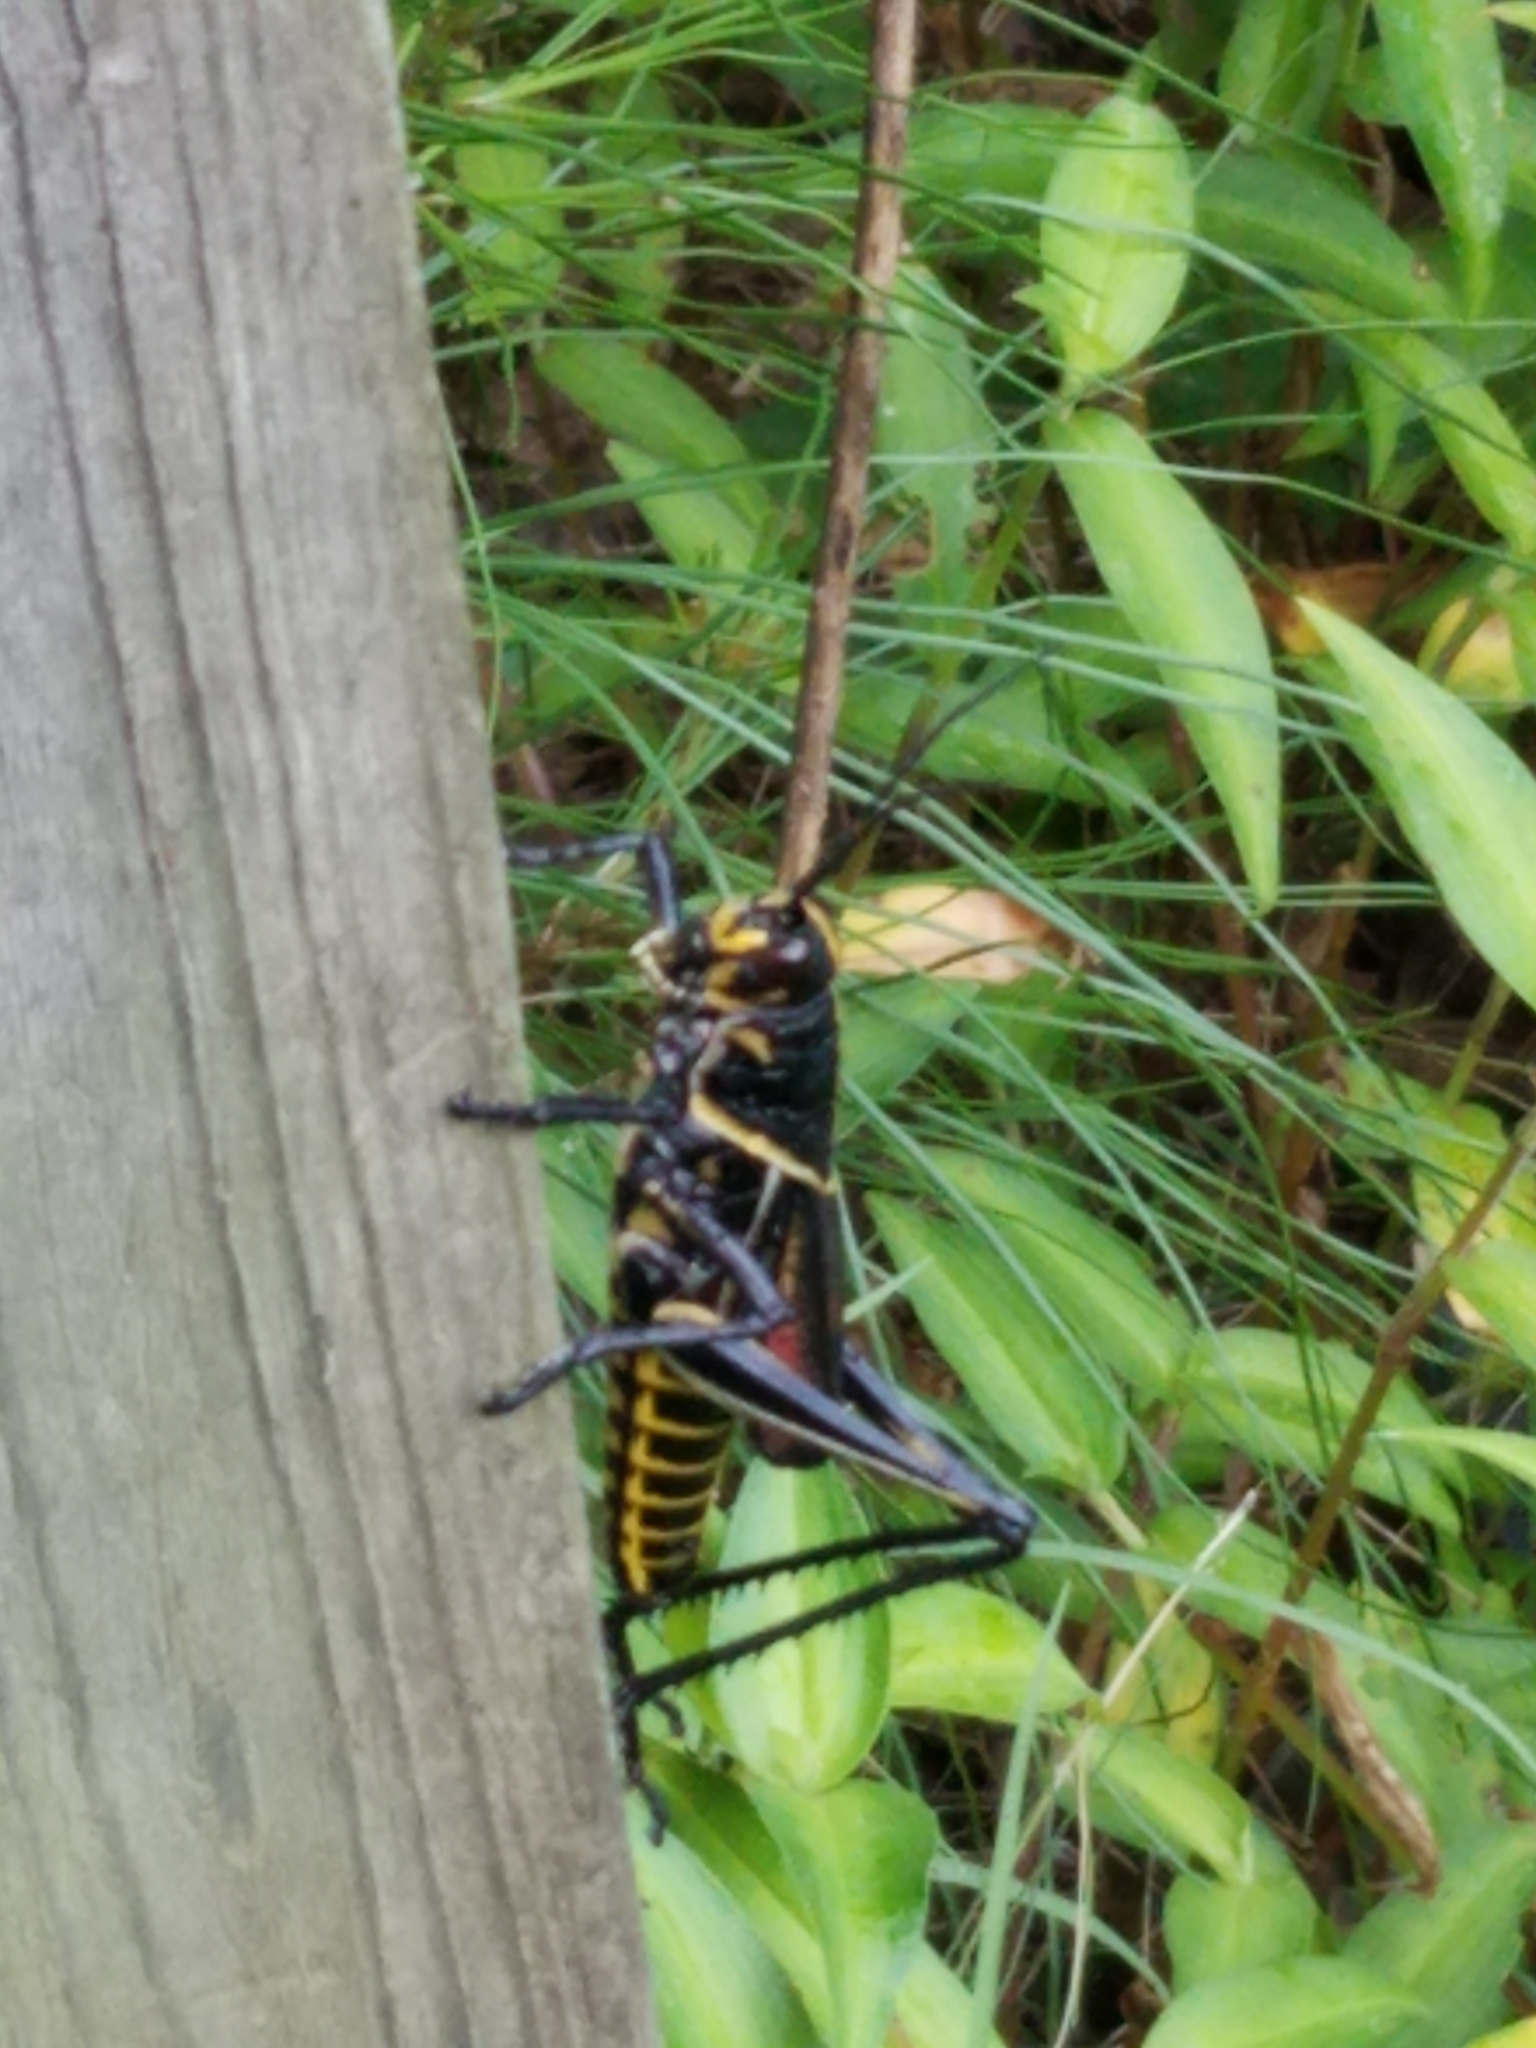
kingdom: Animalia
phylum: Arthropoda
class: Insecta
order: Orthoptera
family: Romaleidae
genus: Romalea
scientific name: Romalea microptera
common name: Eastern lubber grasshopper
